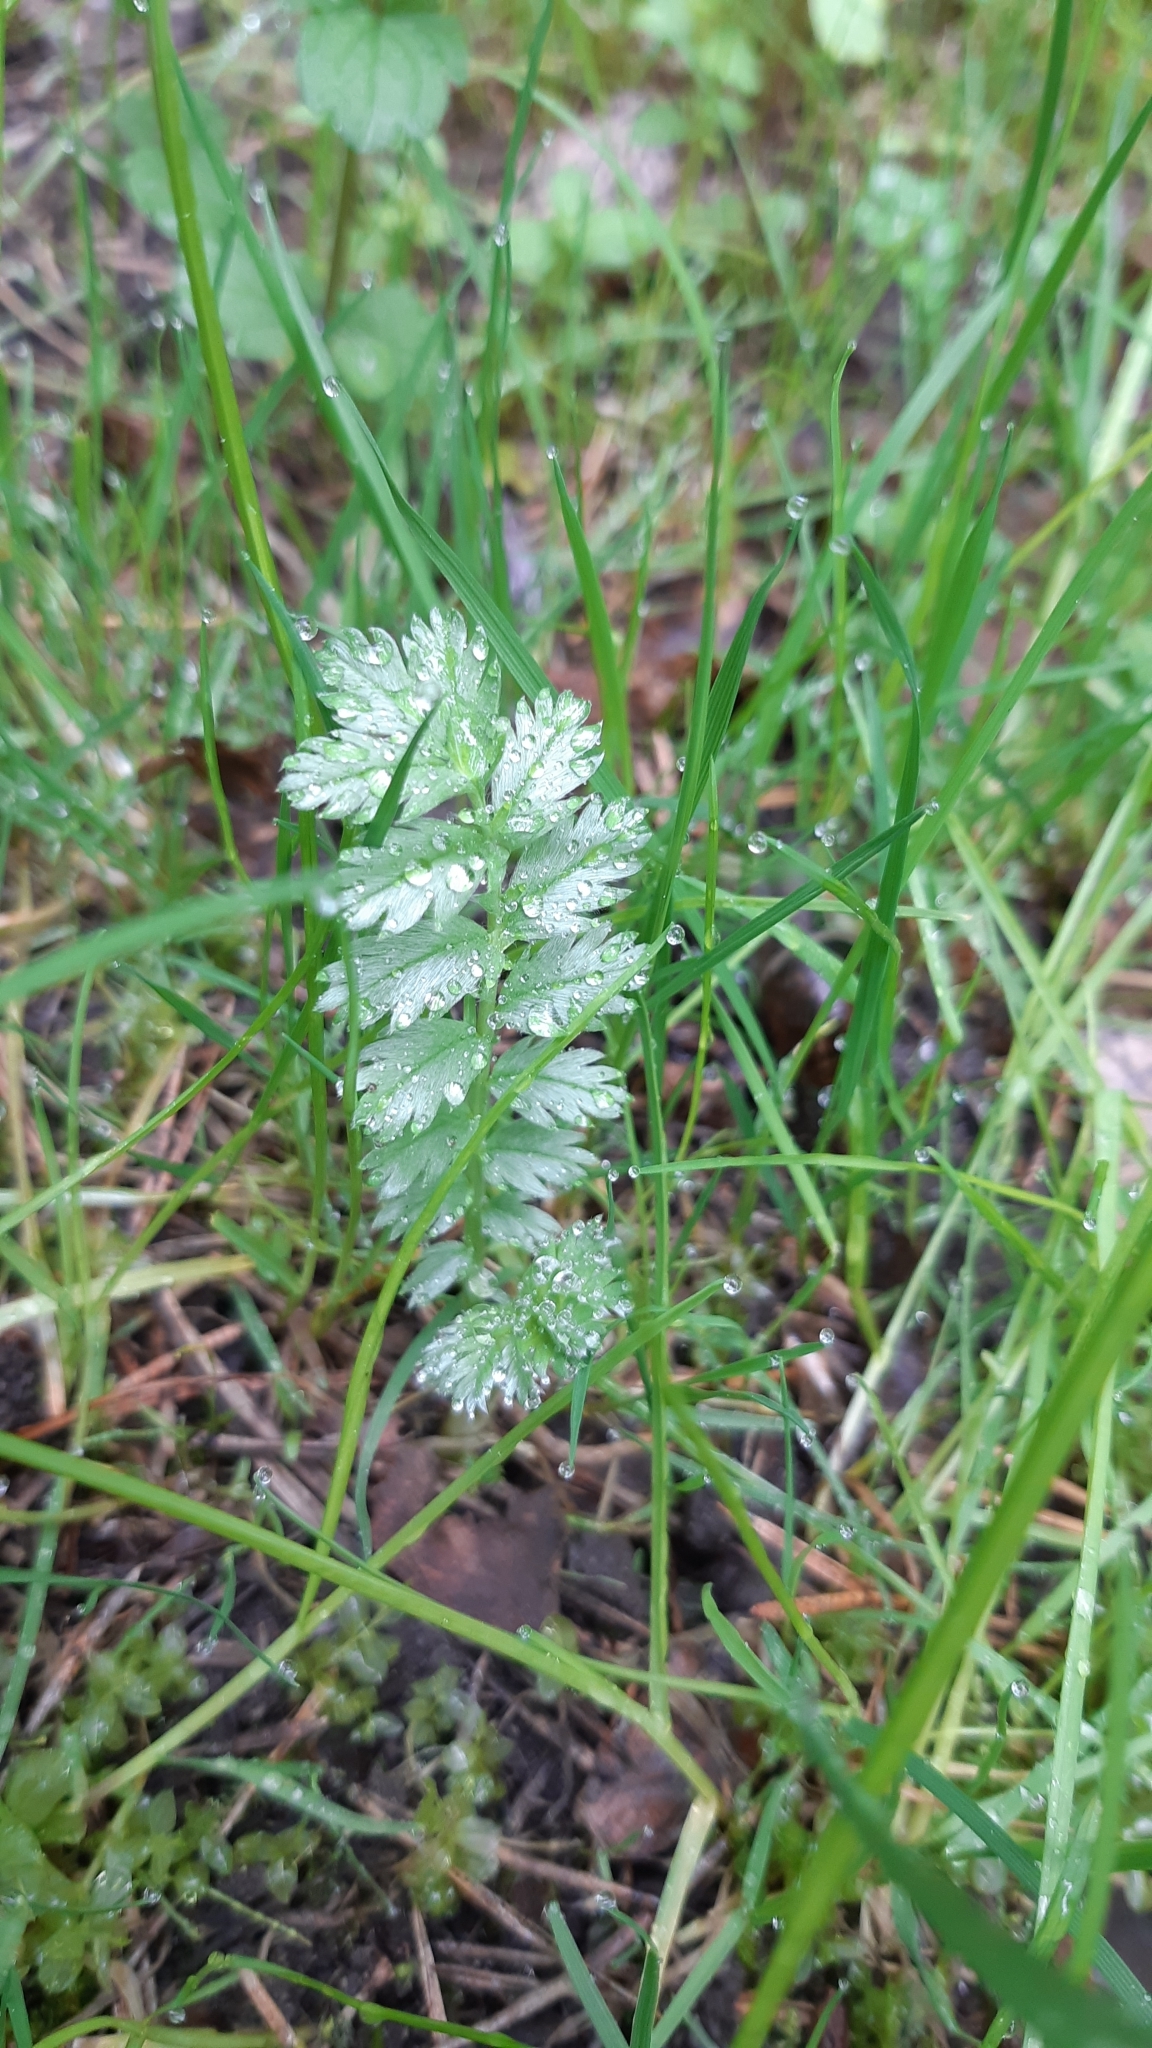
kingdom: Plantae
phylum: Tracheophyta
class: Magnoliopsida
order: Rosales
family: Rosaceae
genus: Argentina
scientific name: Argentina anserina
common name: Common silverweed
